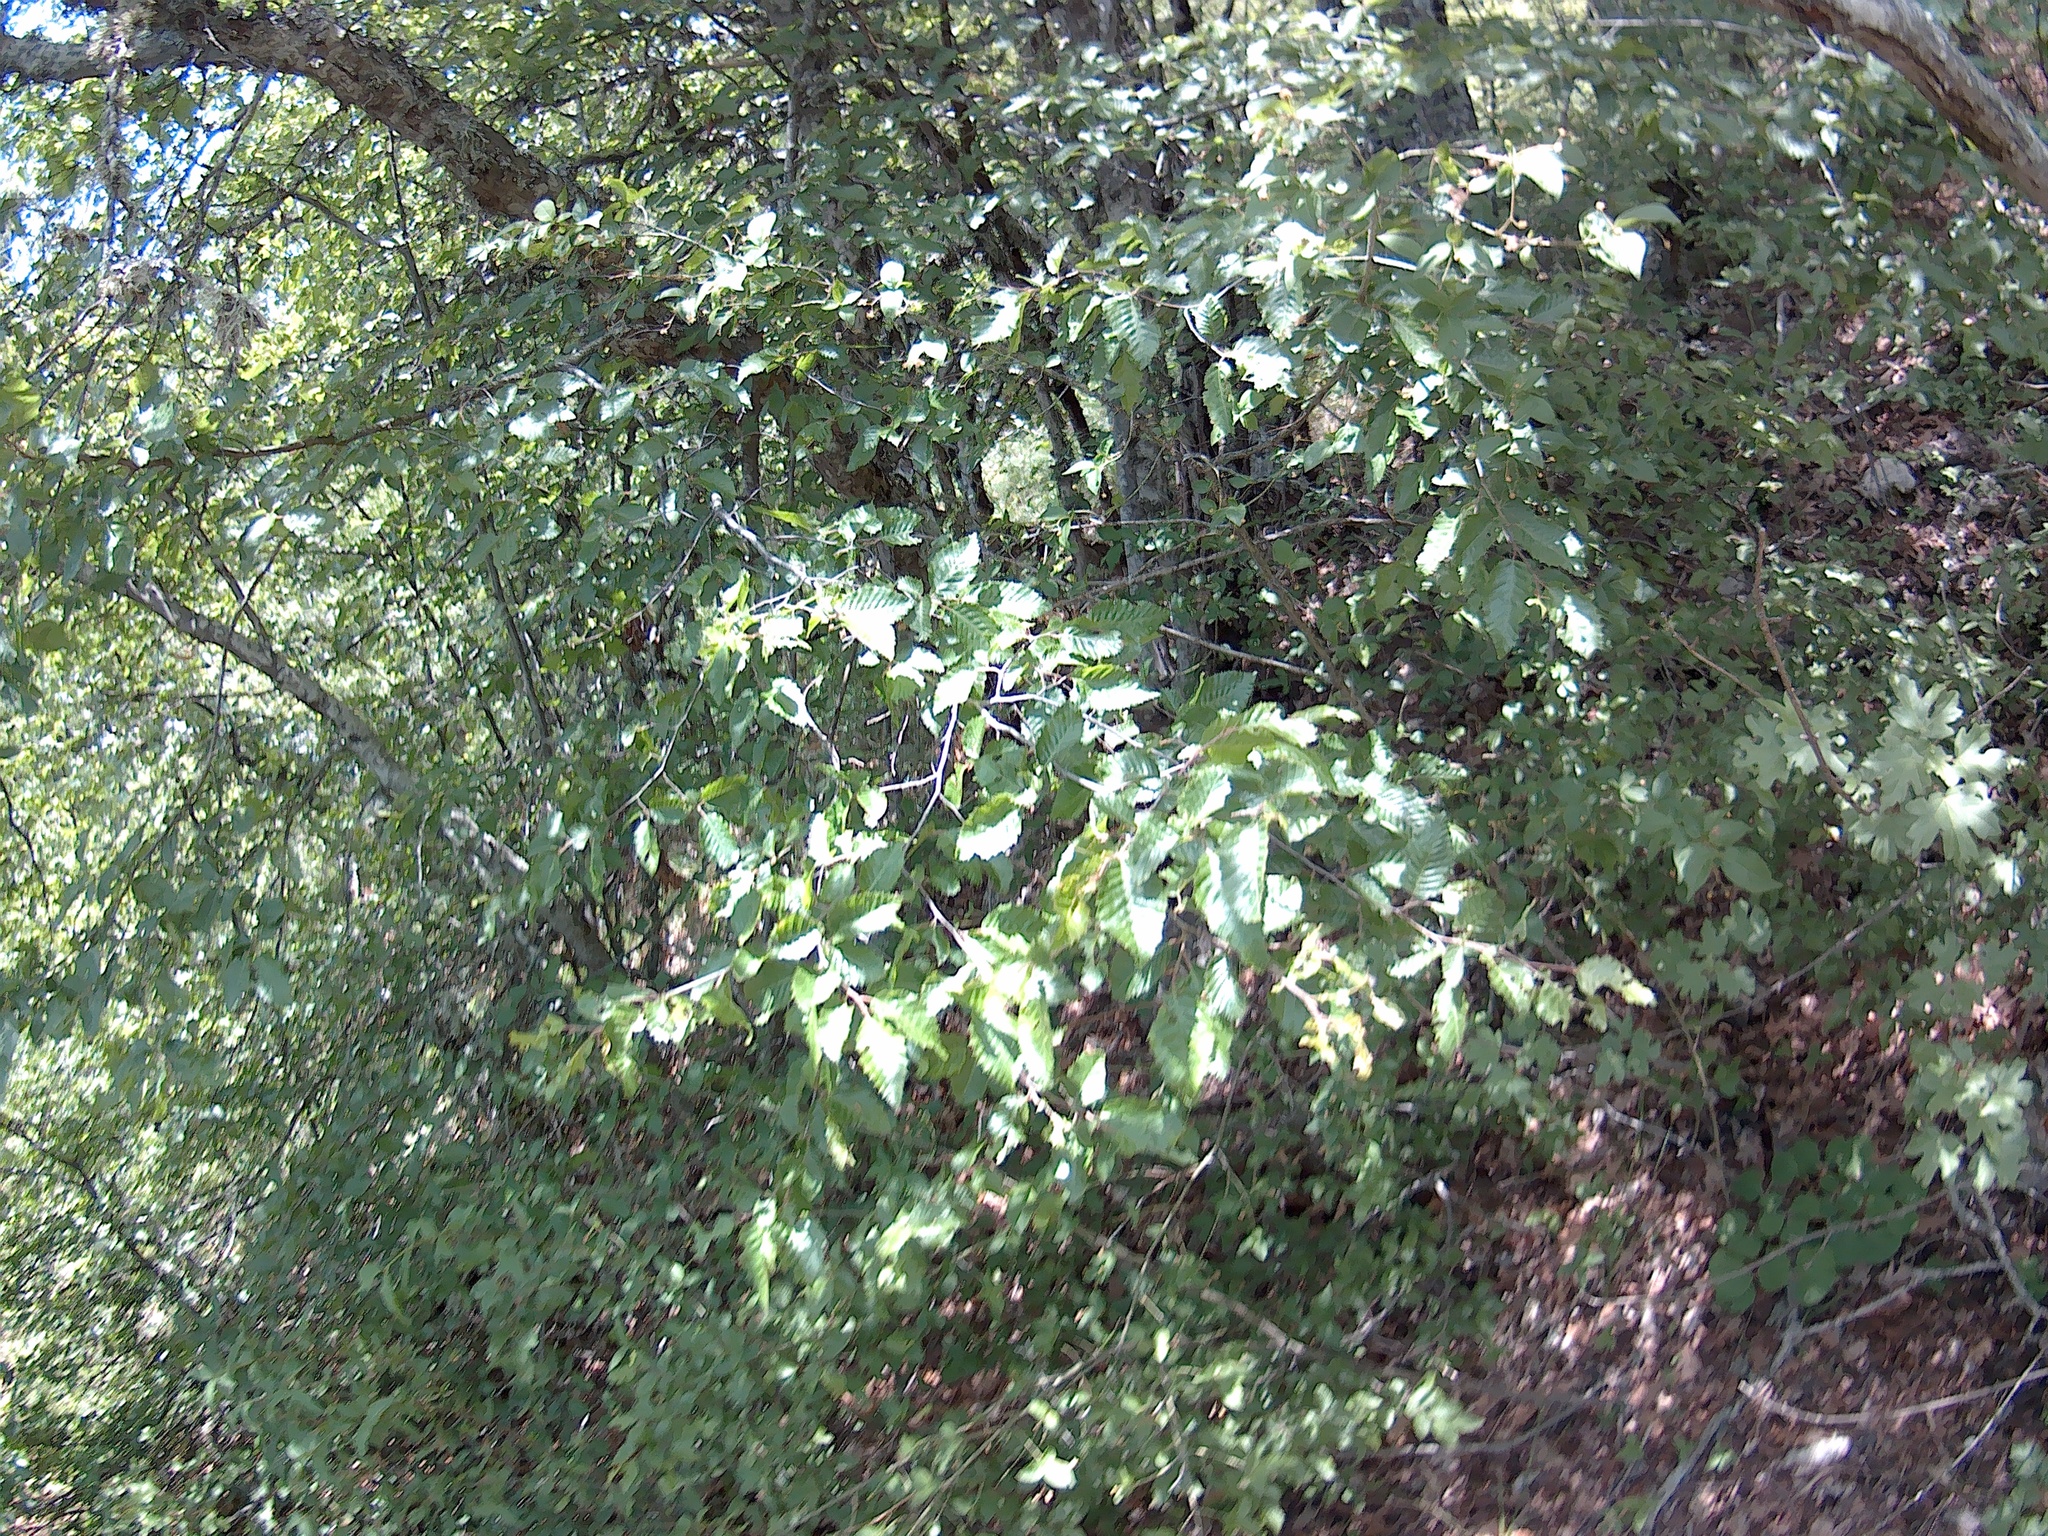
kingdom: Plantae
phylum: Tracheophyta
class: Magnoliopsida
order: Sapindales
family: Sapindaceae
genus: Acer
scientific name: Acer campestre
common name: Field maple
